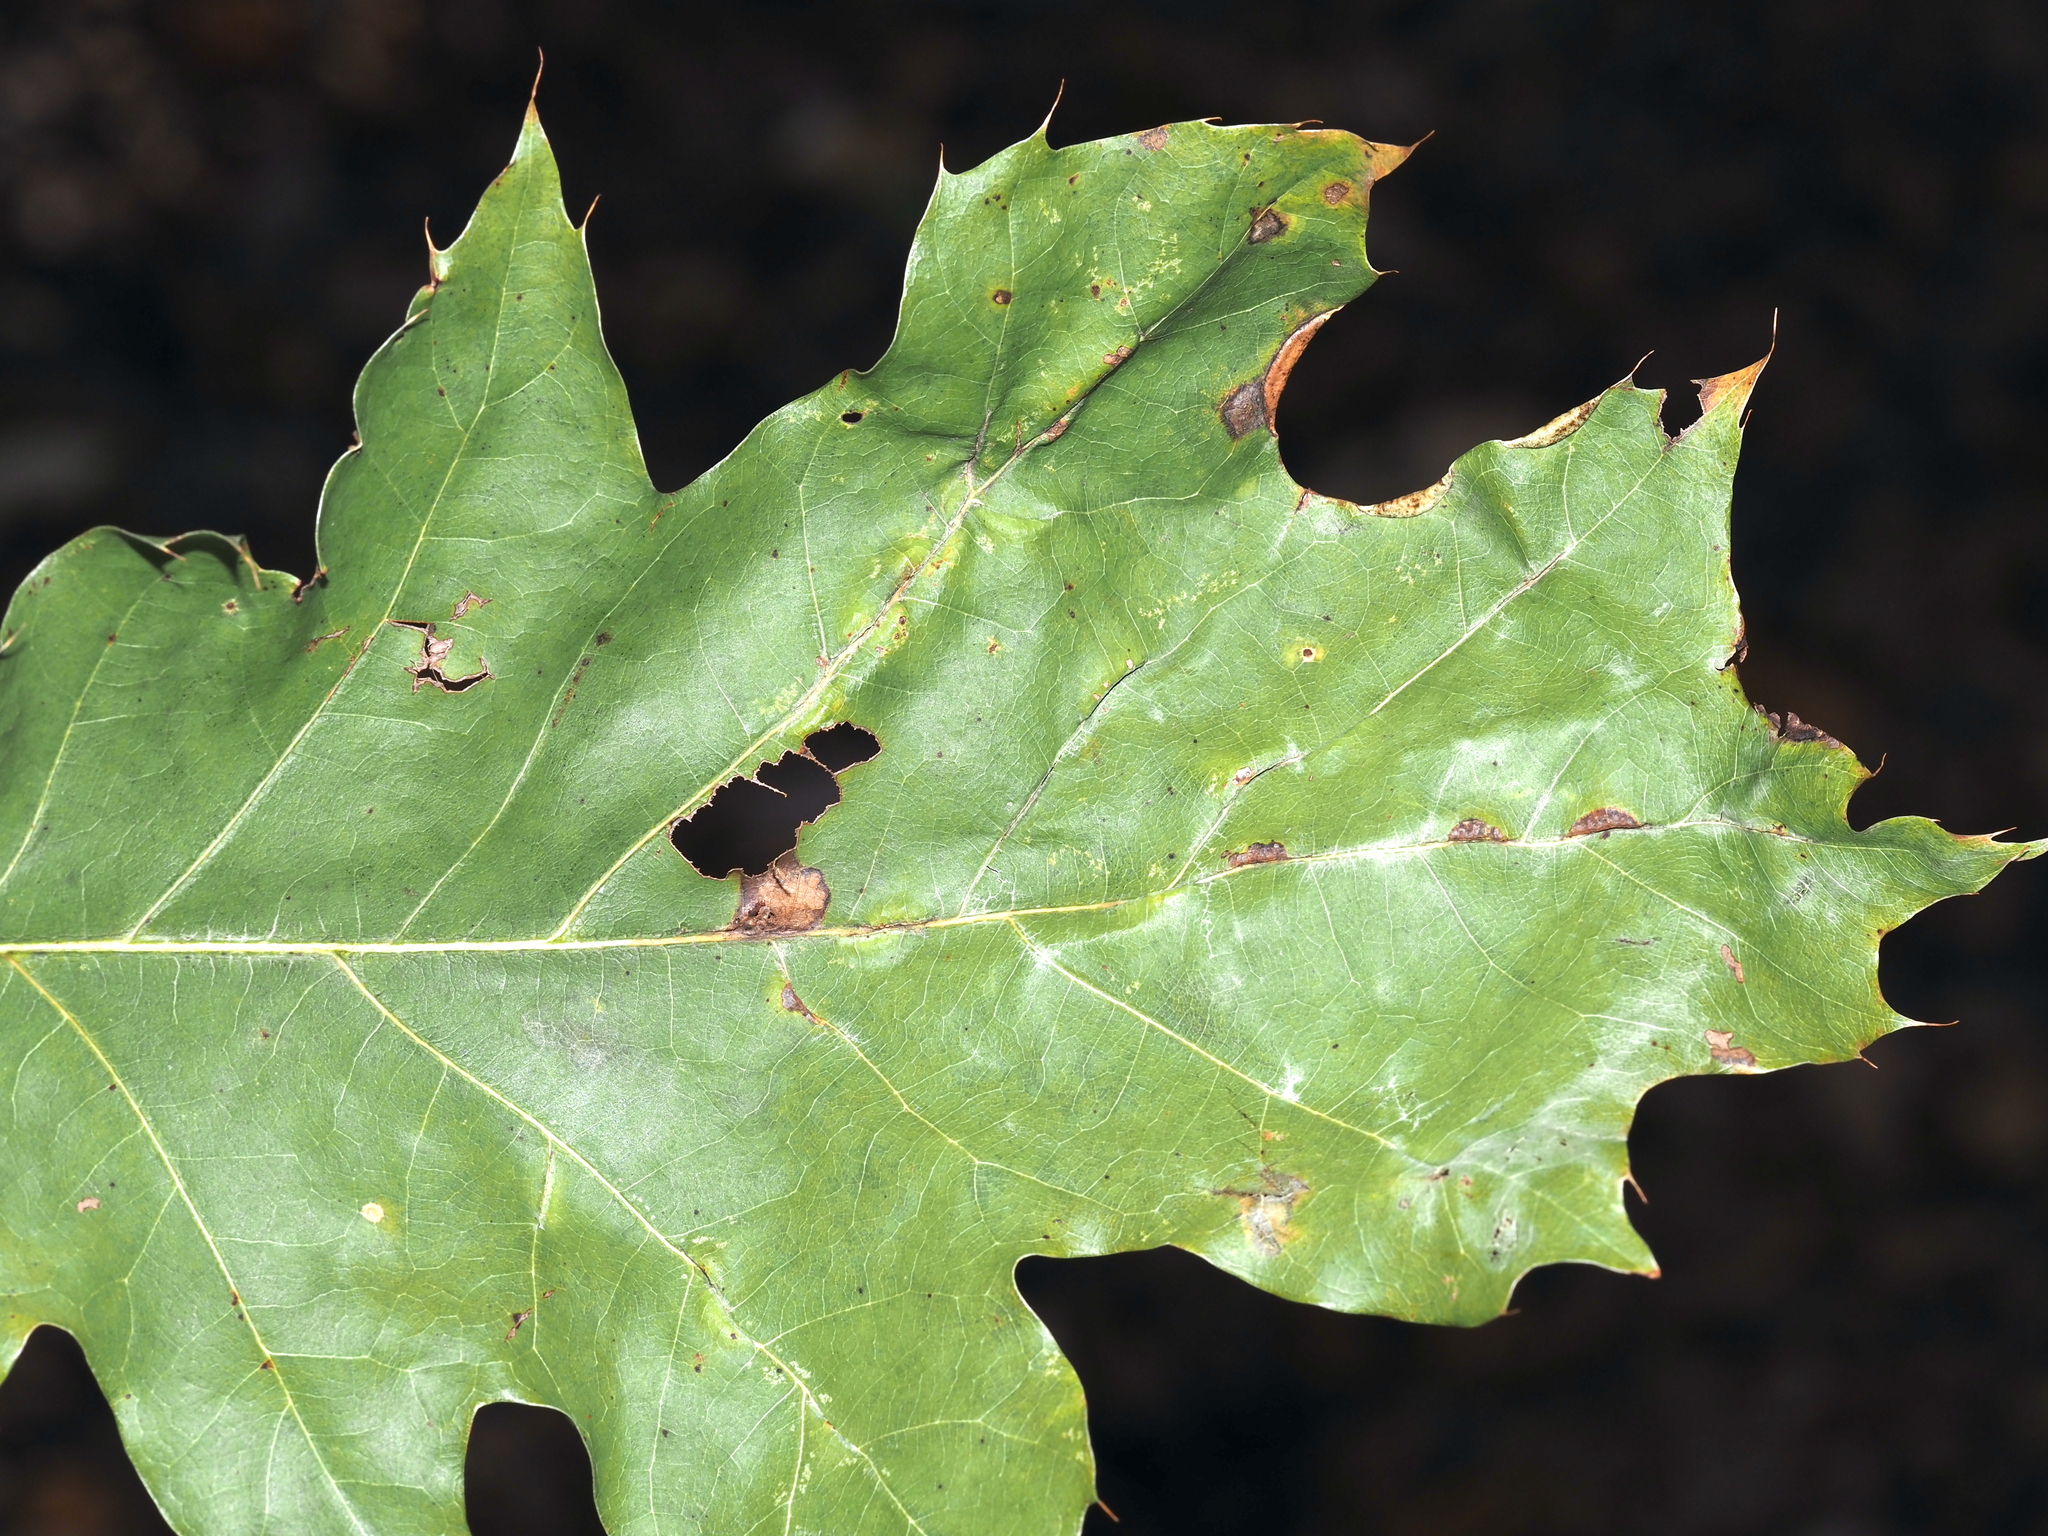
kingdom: Animalia
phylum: Arthropoda
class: Insecta
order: Diptera
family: Cecidomyiidae
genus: Macrodiplosis
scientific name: Macrodiplosis q-orucum
